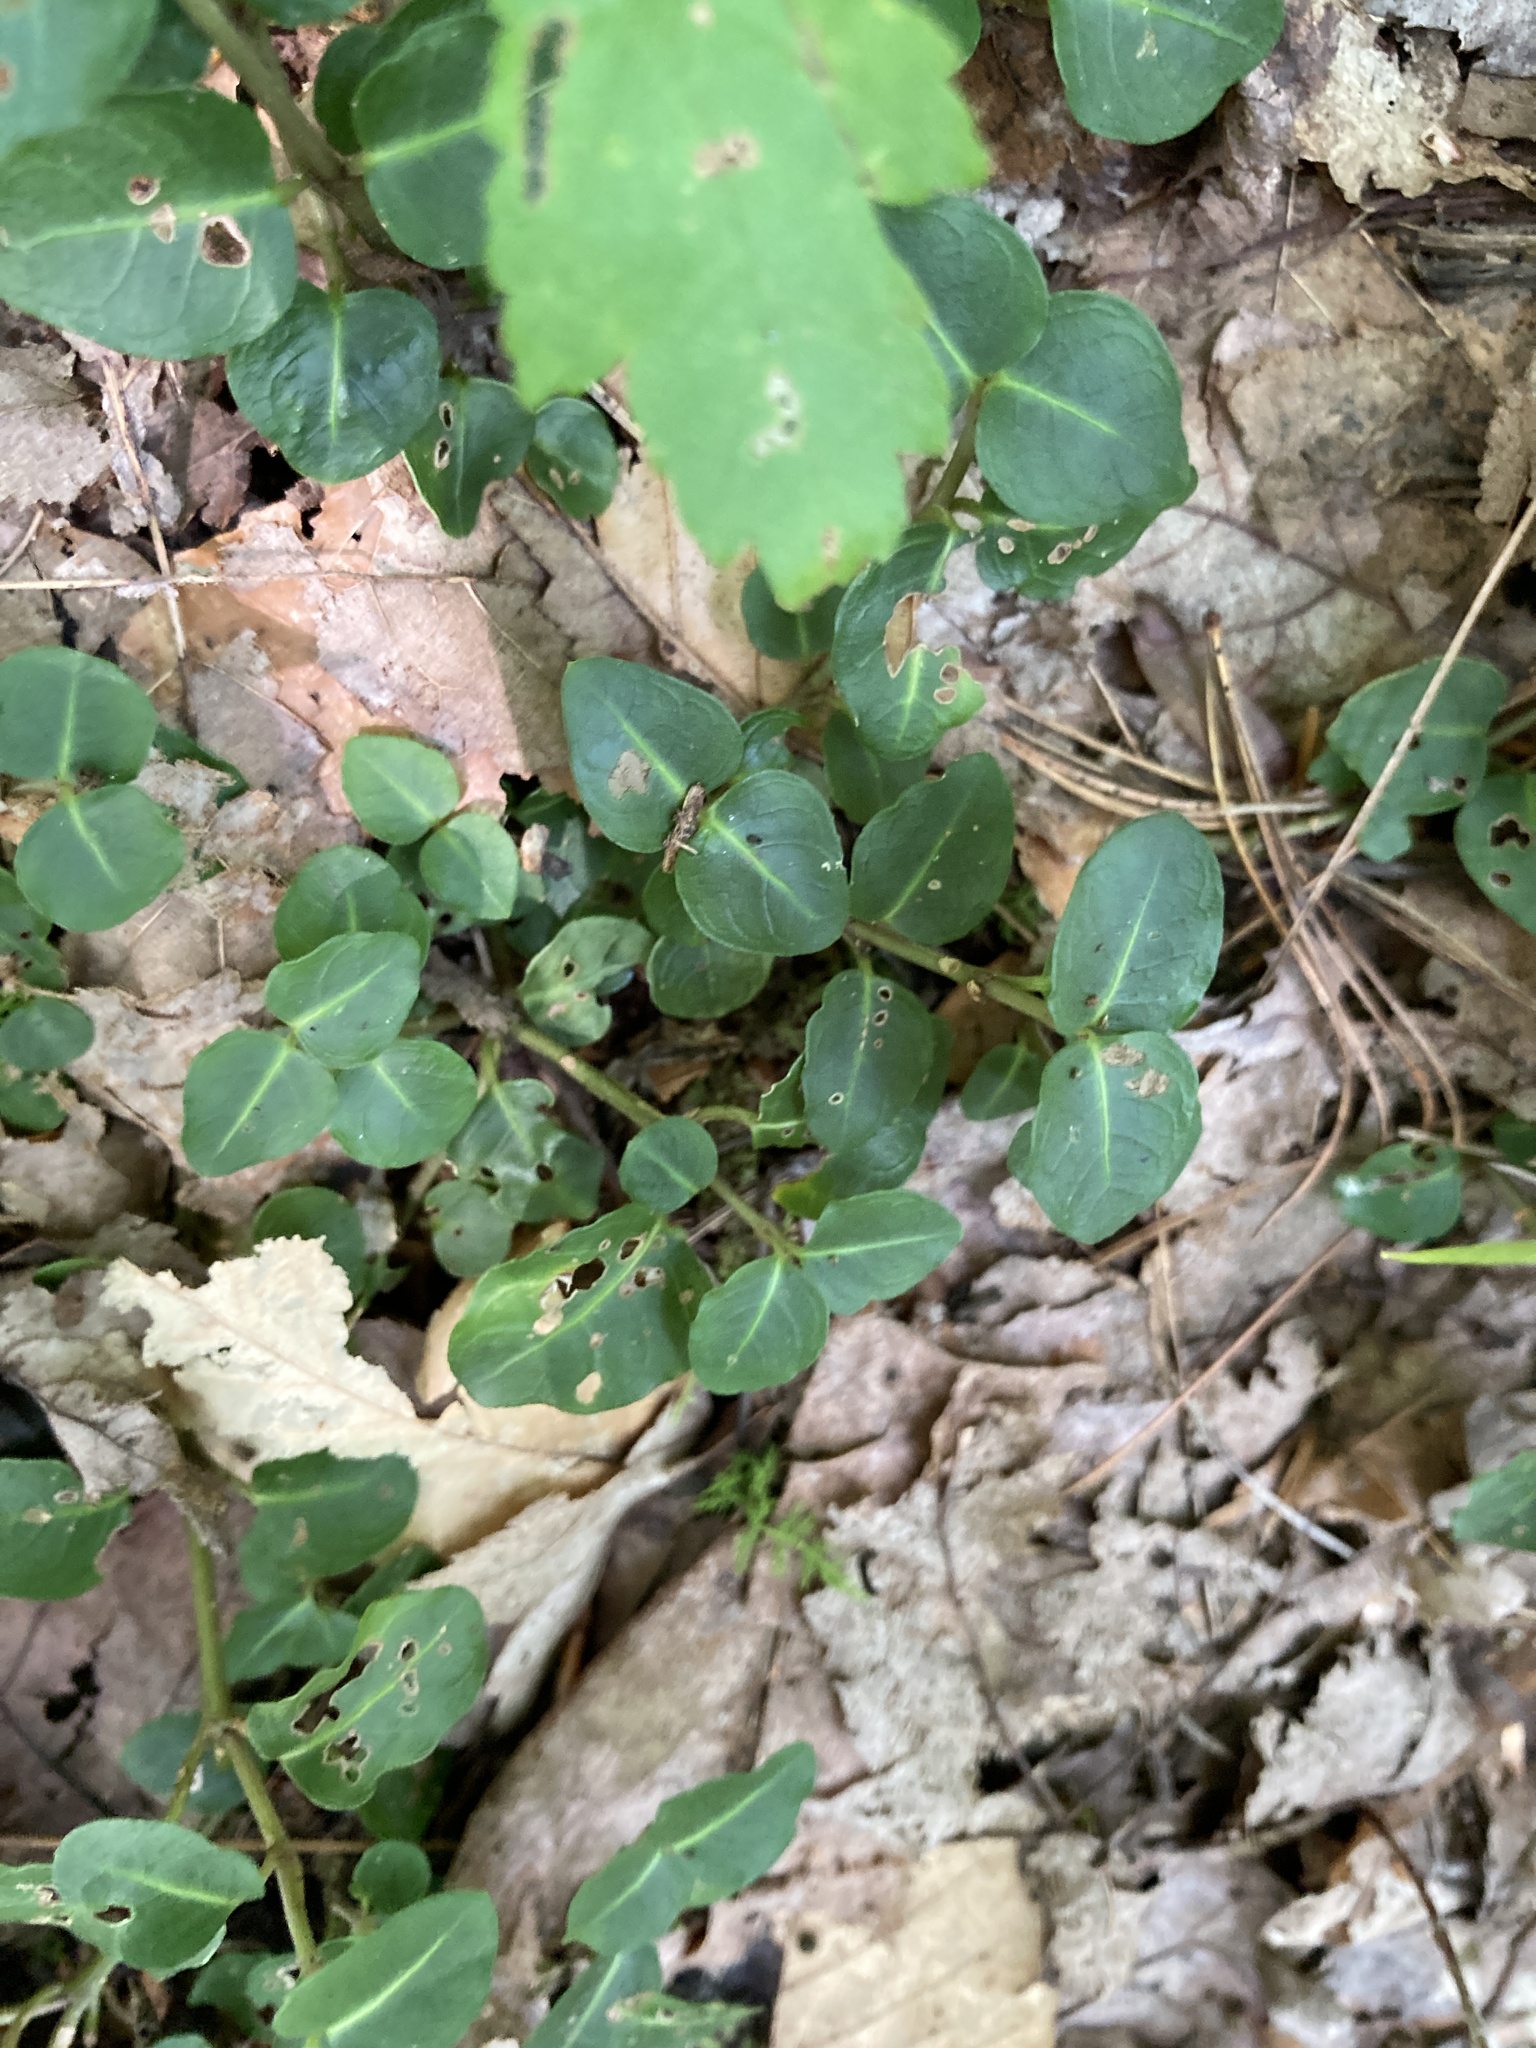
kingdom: Plantae
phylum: Tracheophyta
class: Magnoliopsida
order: Gentianales
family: Rubiaceae
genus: Mitchella
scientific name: Mitchella repens
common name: Partridge-berry
